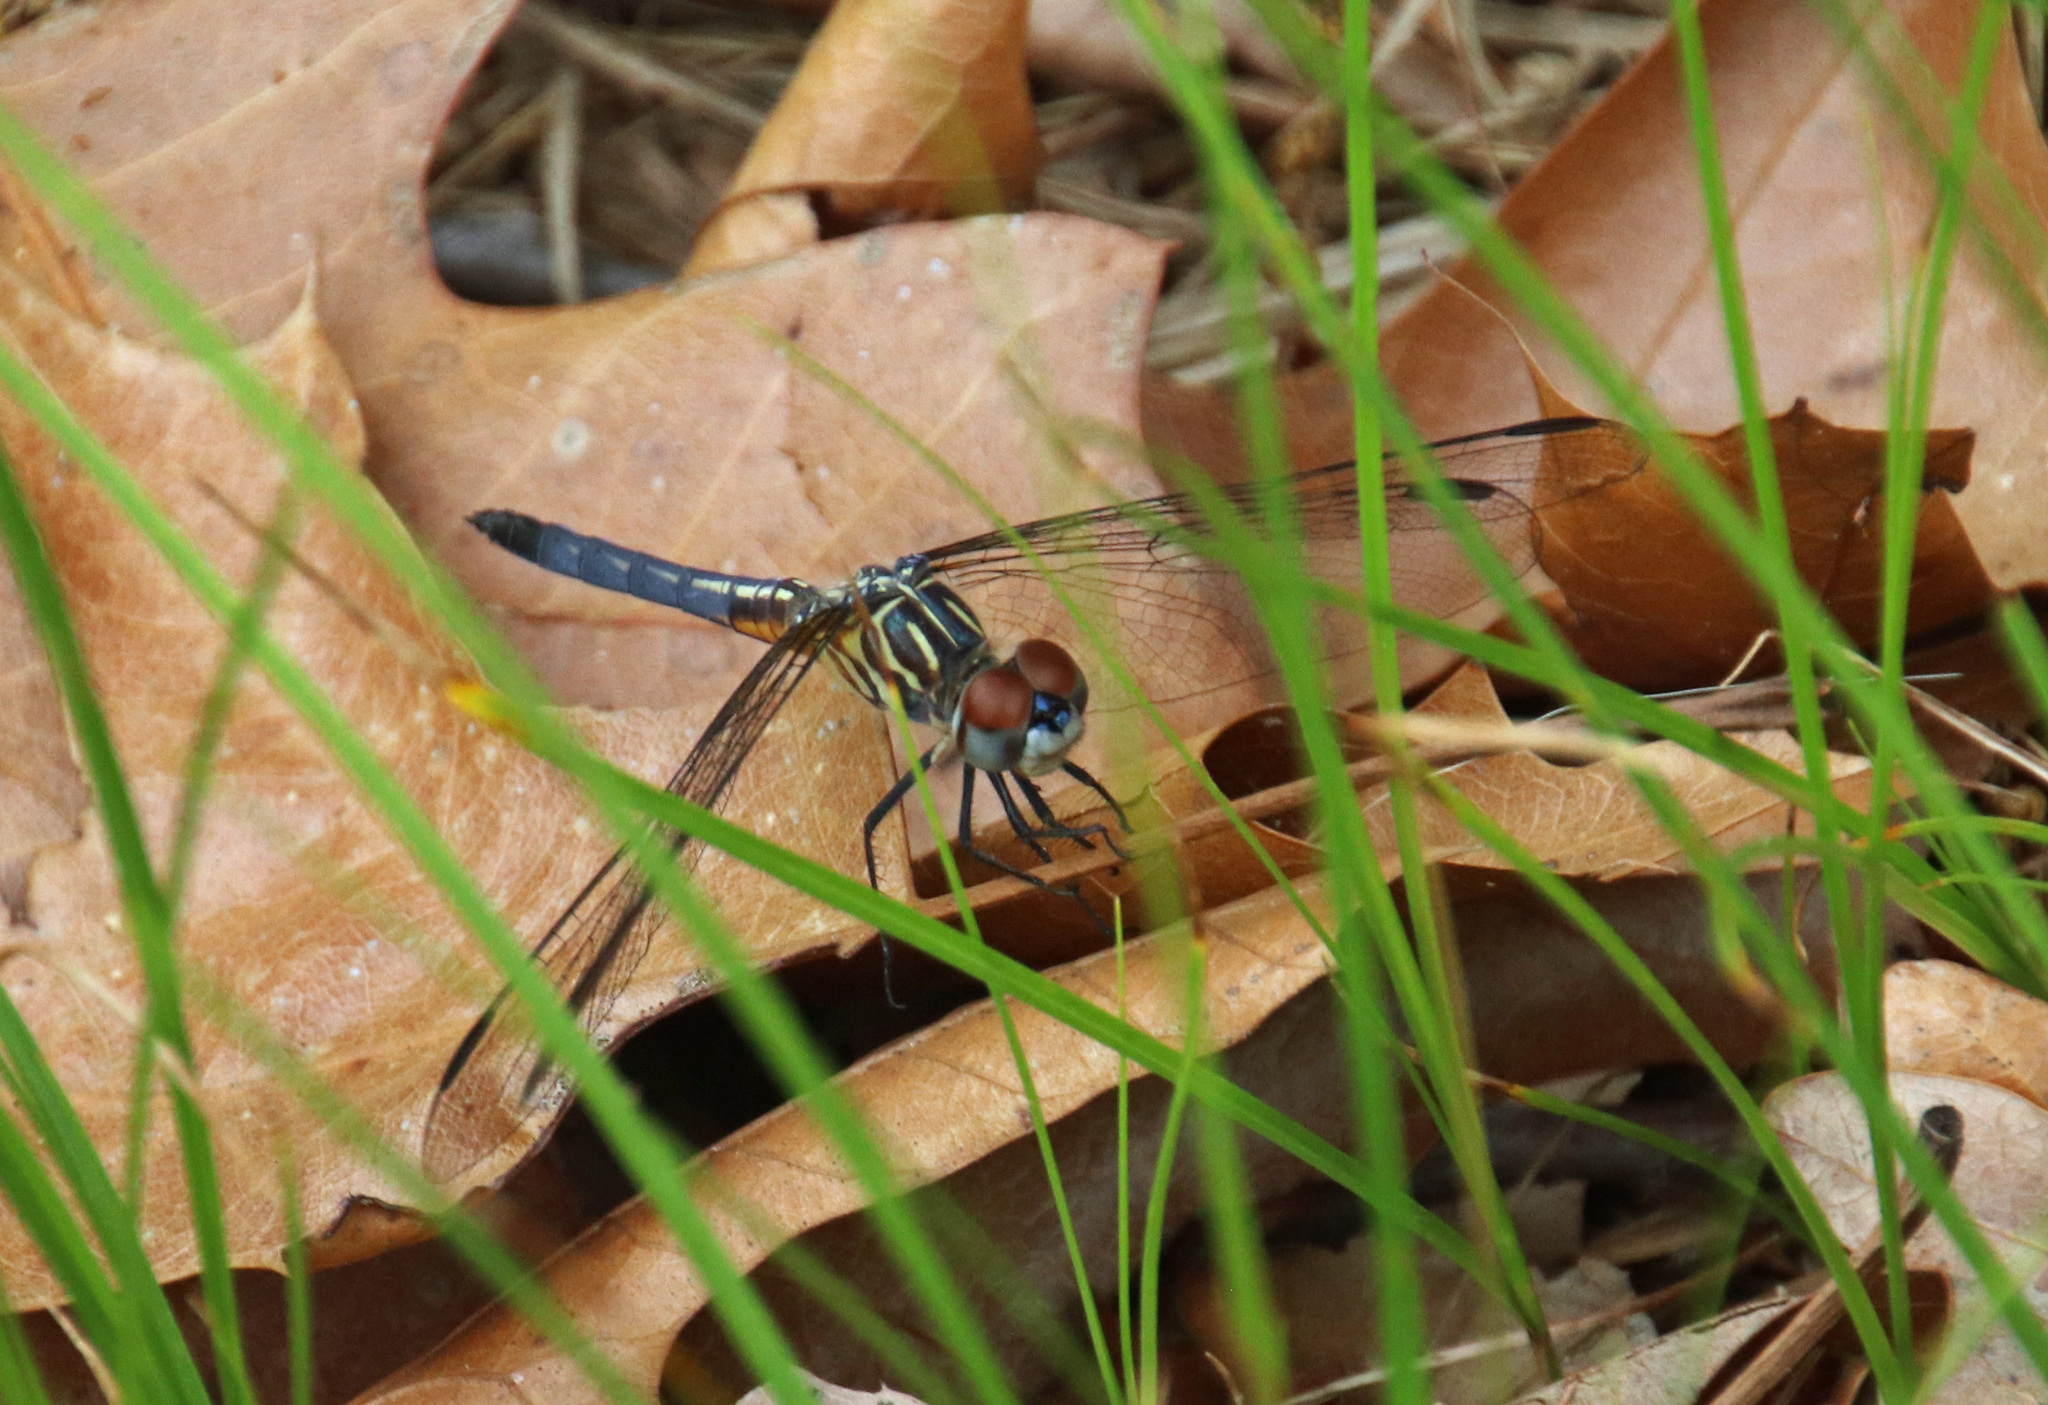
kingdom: Animalia
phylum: Arthropoda
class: Insecta
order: Odonata
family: Libellulidae
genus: Pachydiplax
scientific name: Pachydiplax longipennis
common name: Blue dasher
